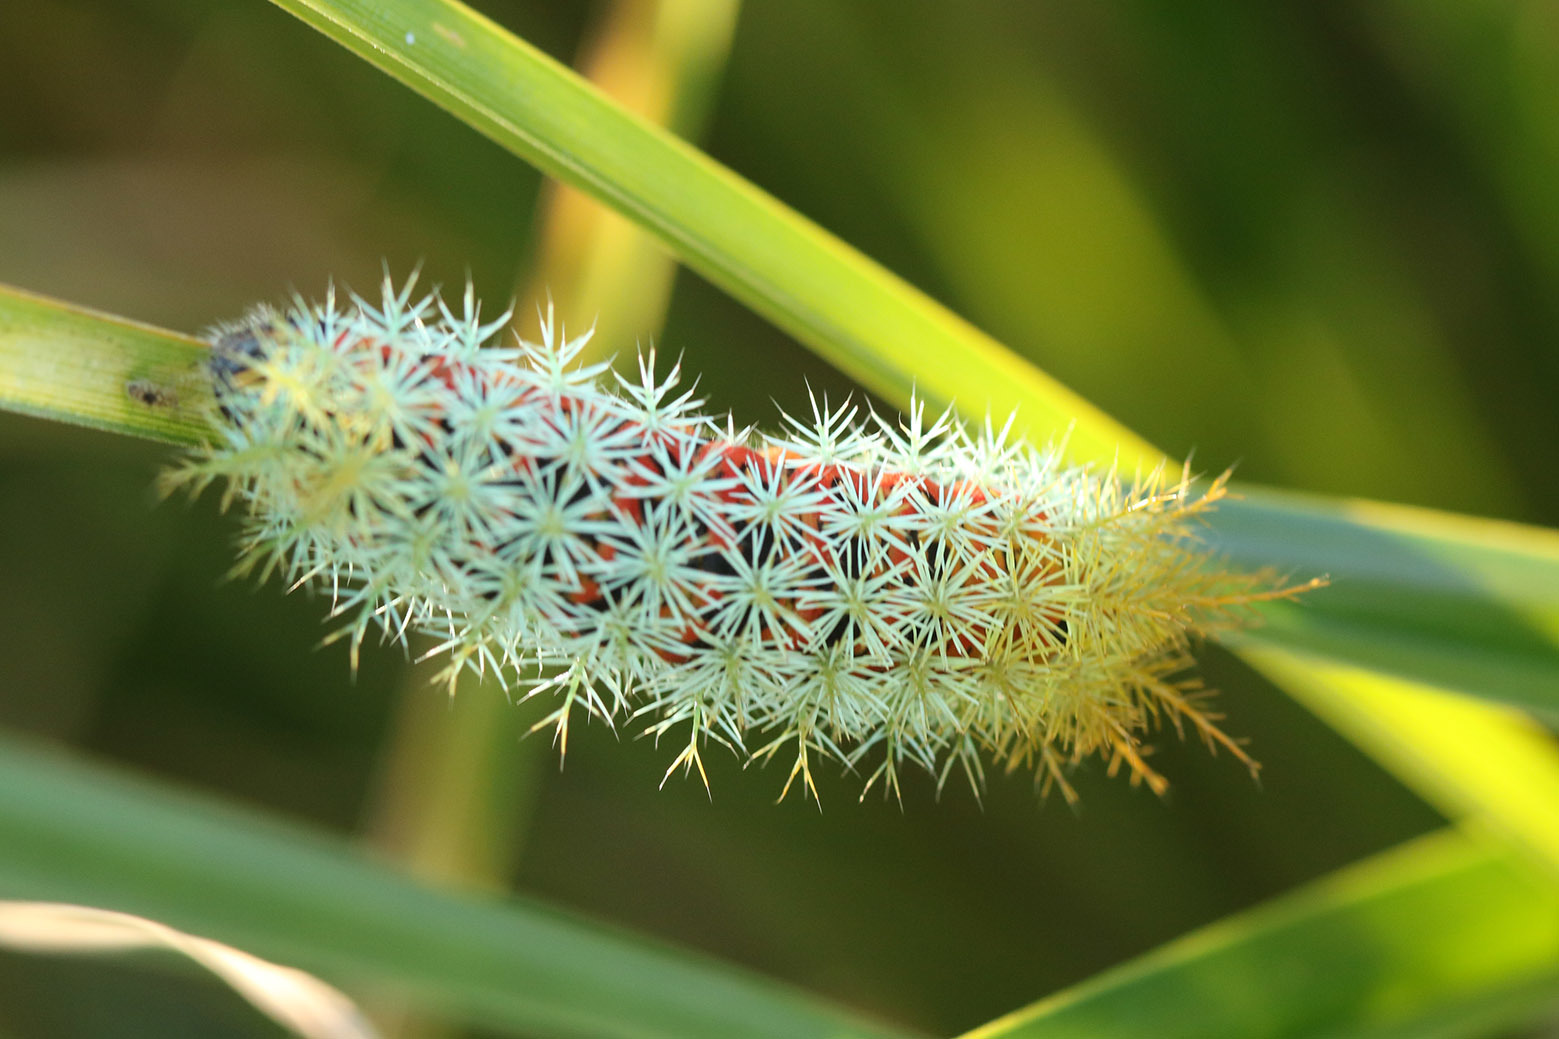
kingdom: Animalia
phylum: Arthropoda
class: Insecta
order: Lepidoptera
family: Saturniidae
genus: Pseudautomeris
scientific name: Pseudautomeris grammivora
